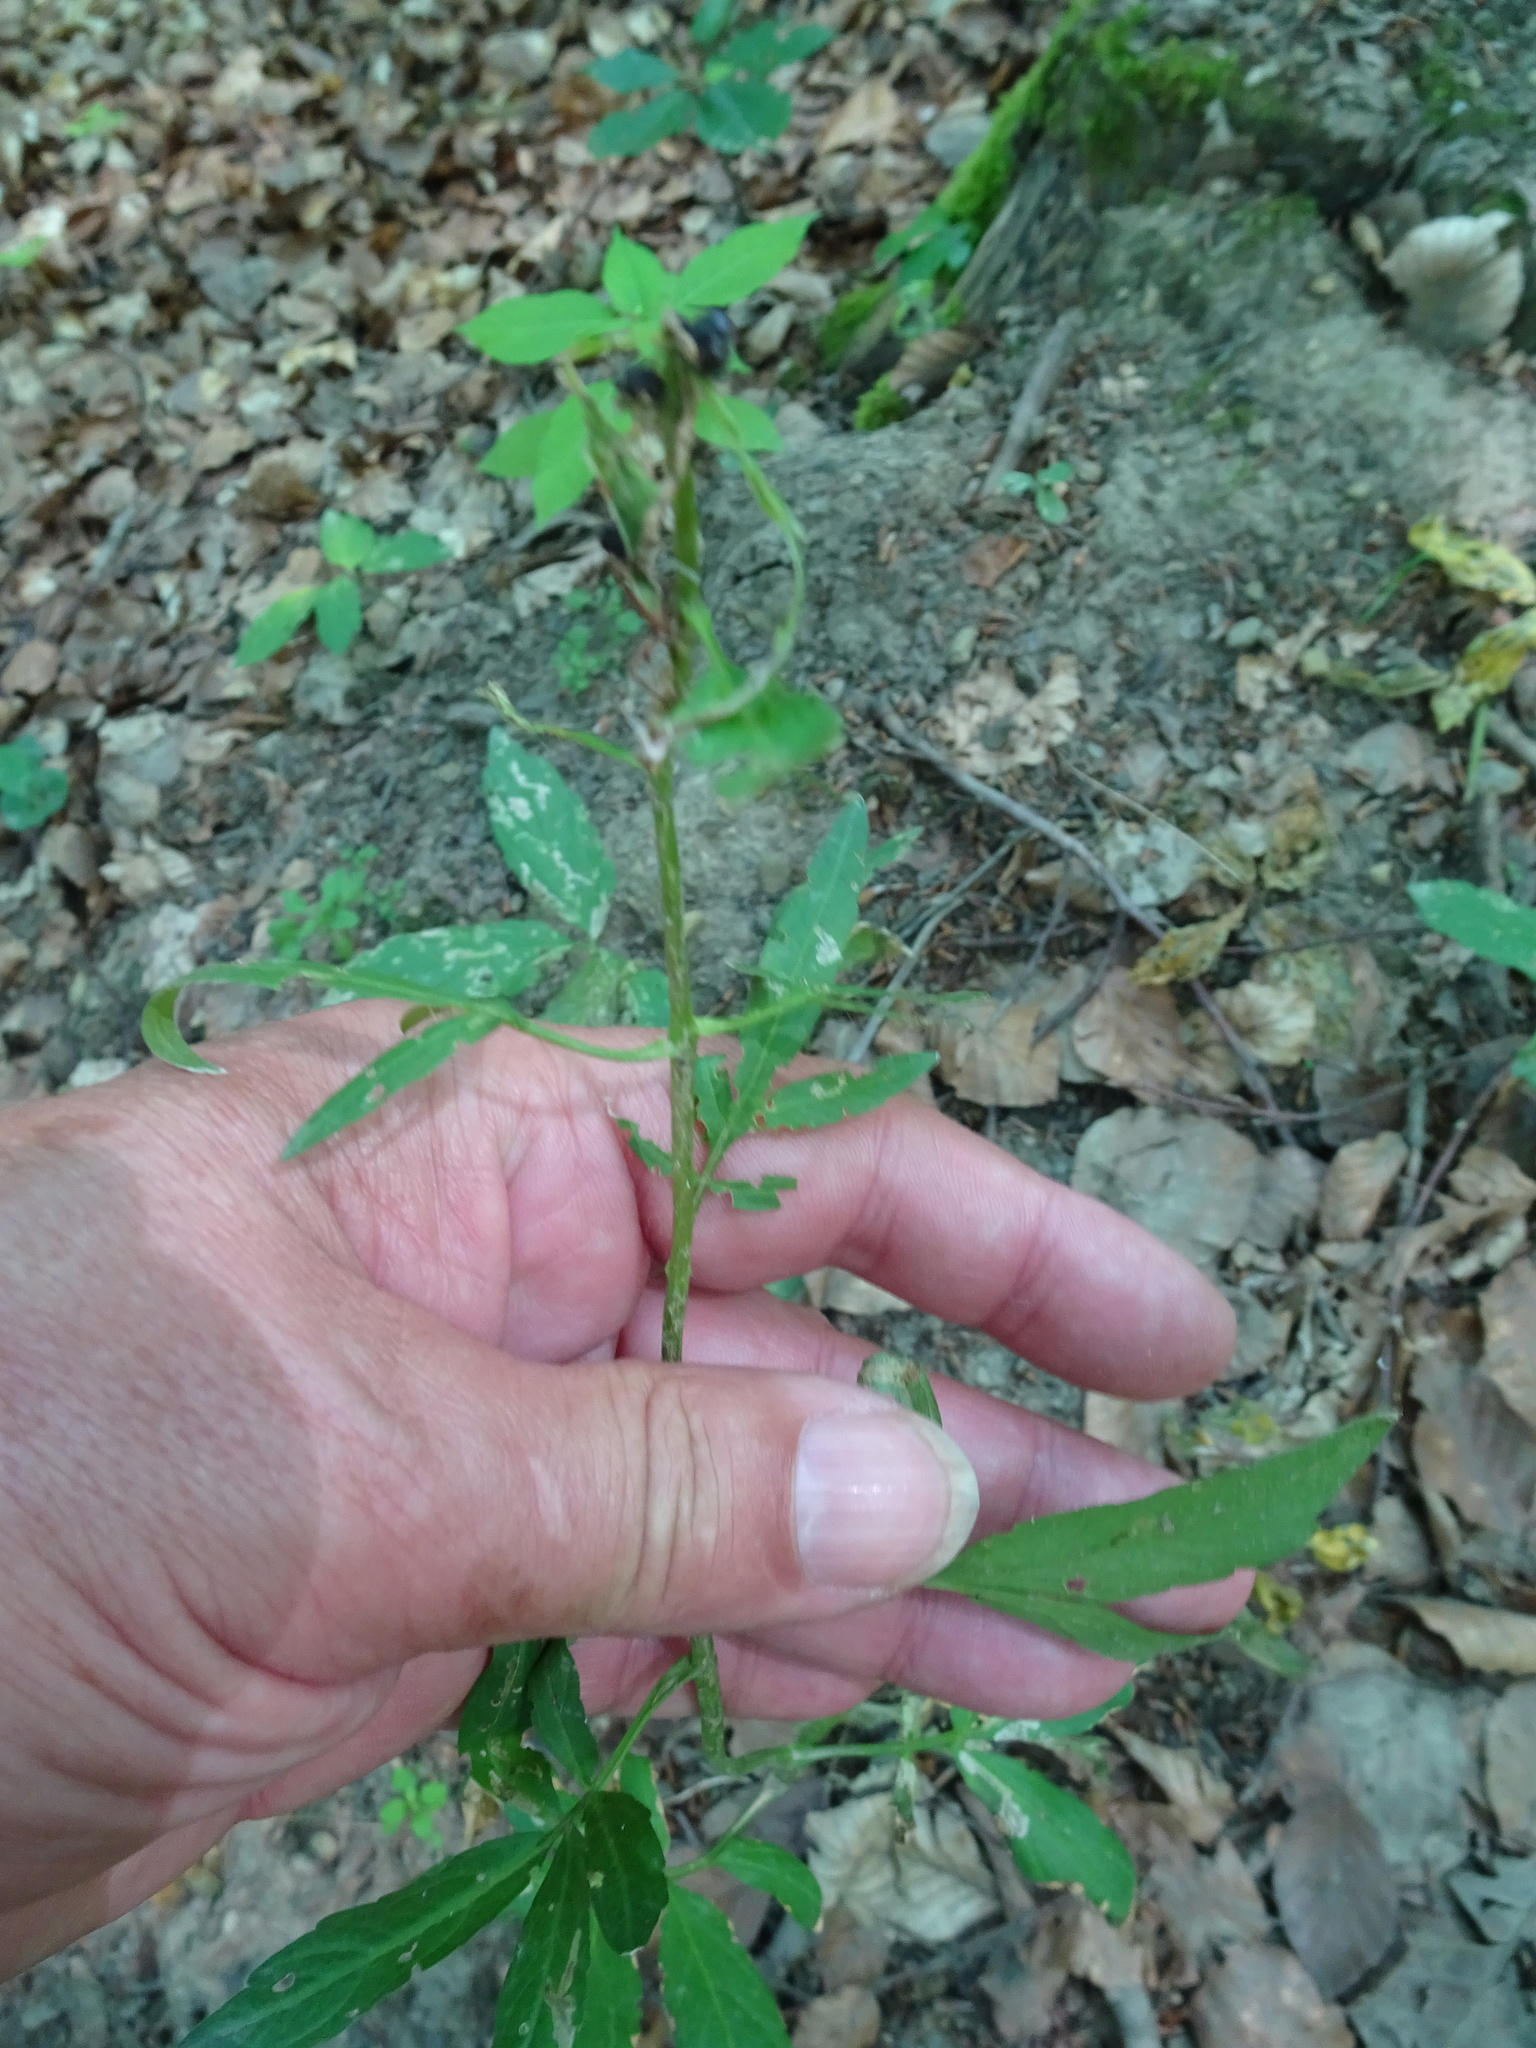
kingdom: Plantae
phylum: Tracheophyta
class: Magnoliopsida
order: Brassicales
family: Brassicaceae
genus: Cardamine
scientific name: Cardamine bulbifera
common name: Coralroot bittercress
